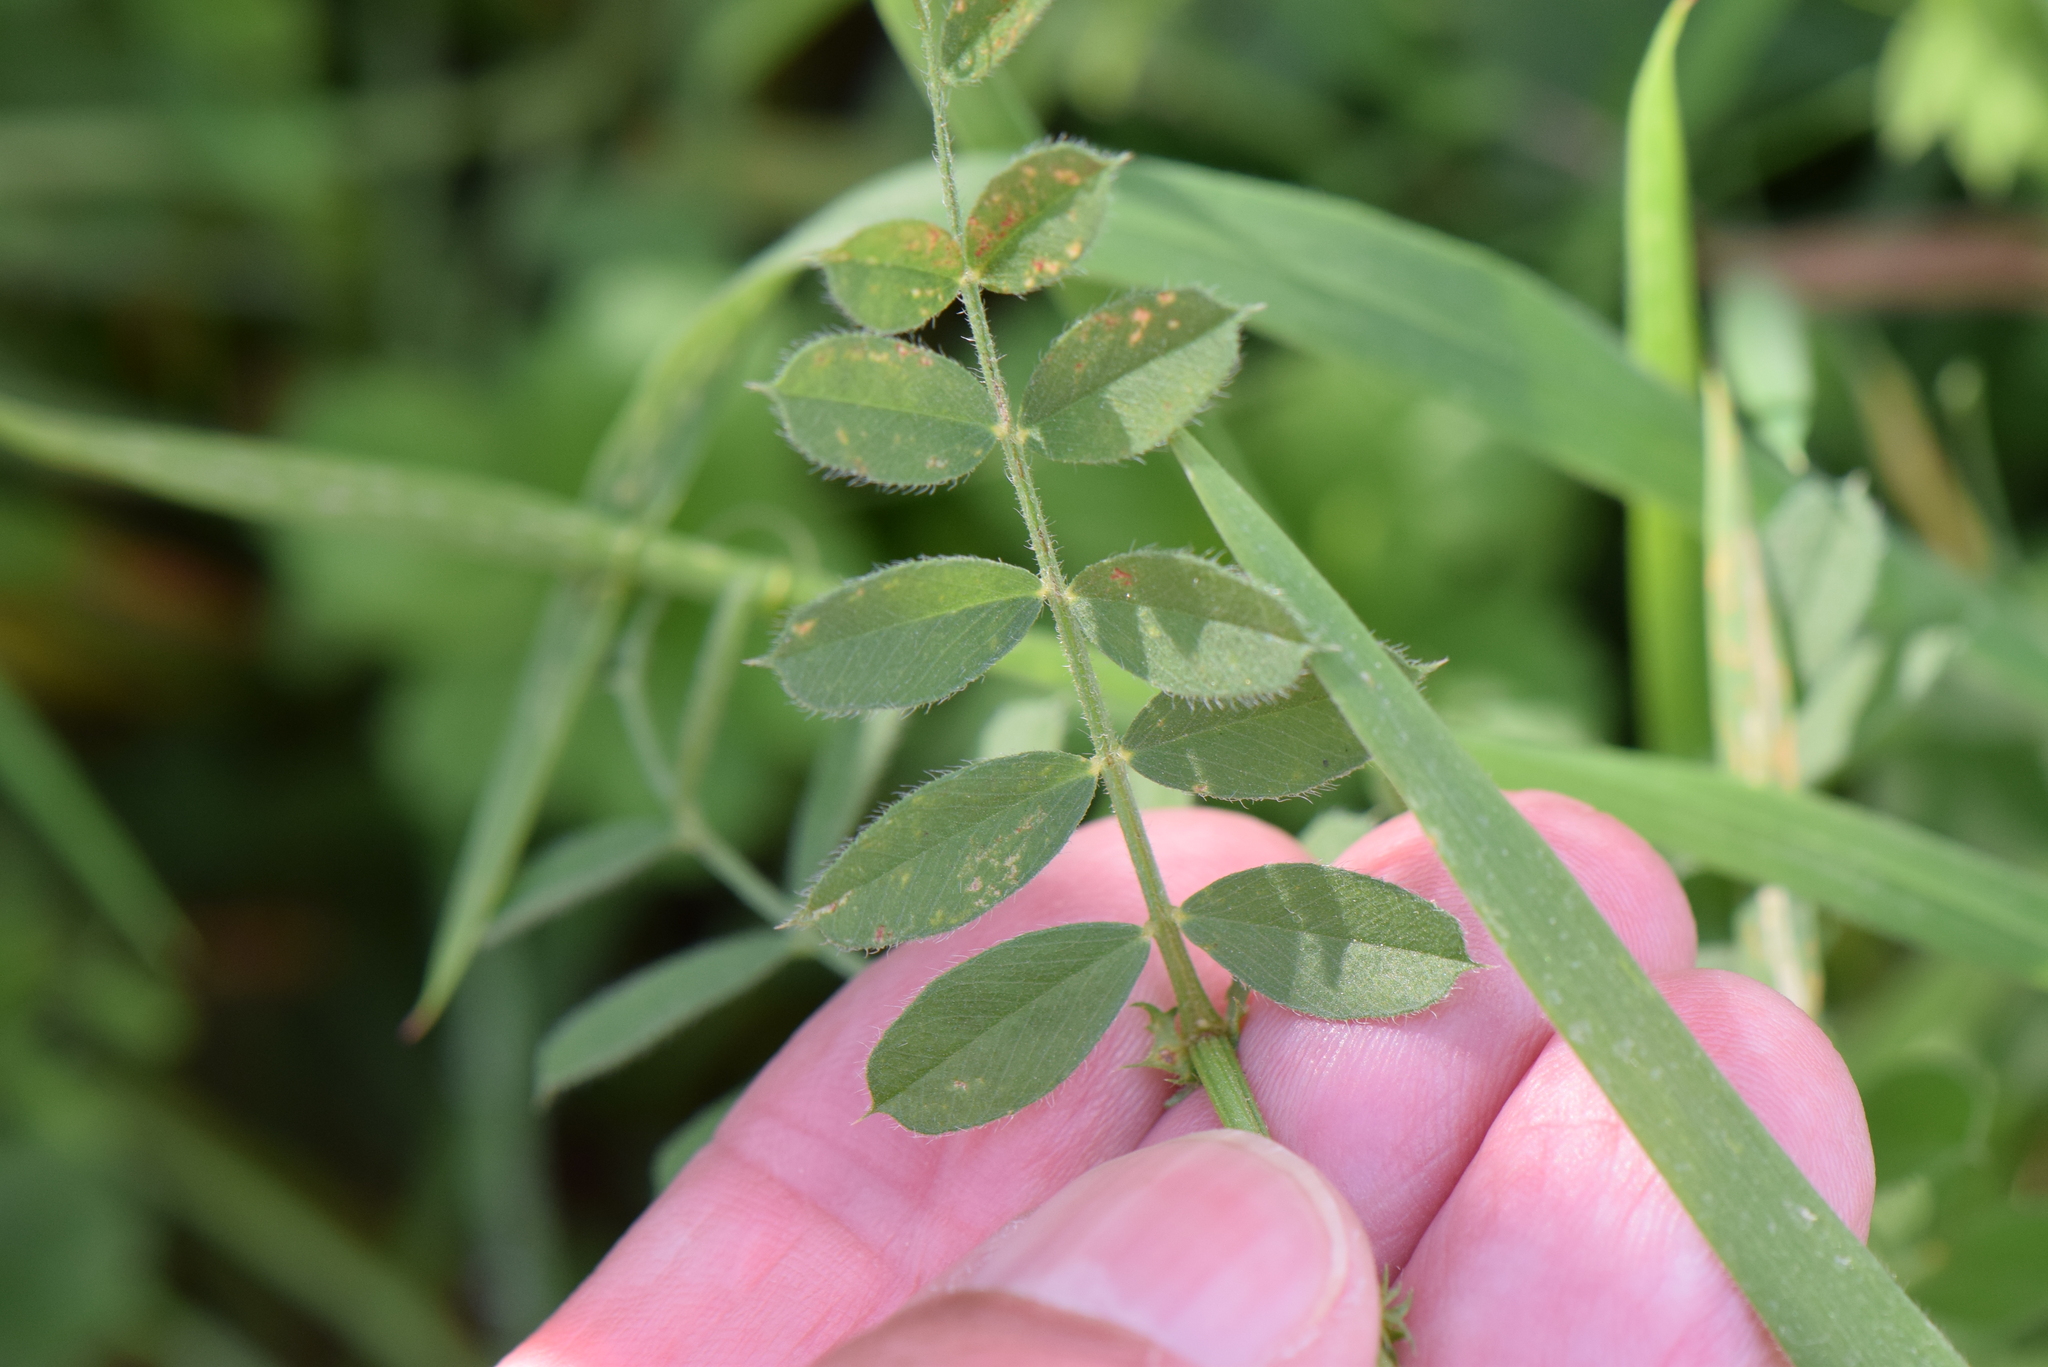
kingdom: Plantae
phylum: Tracheophyta
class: Magnoliopsida
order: Fabales
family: Fabaceae
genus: Vicia
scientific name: Vicia sativa
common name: Garden vetch
